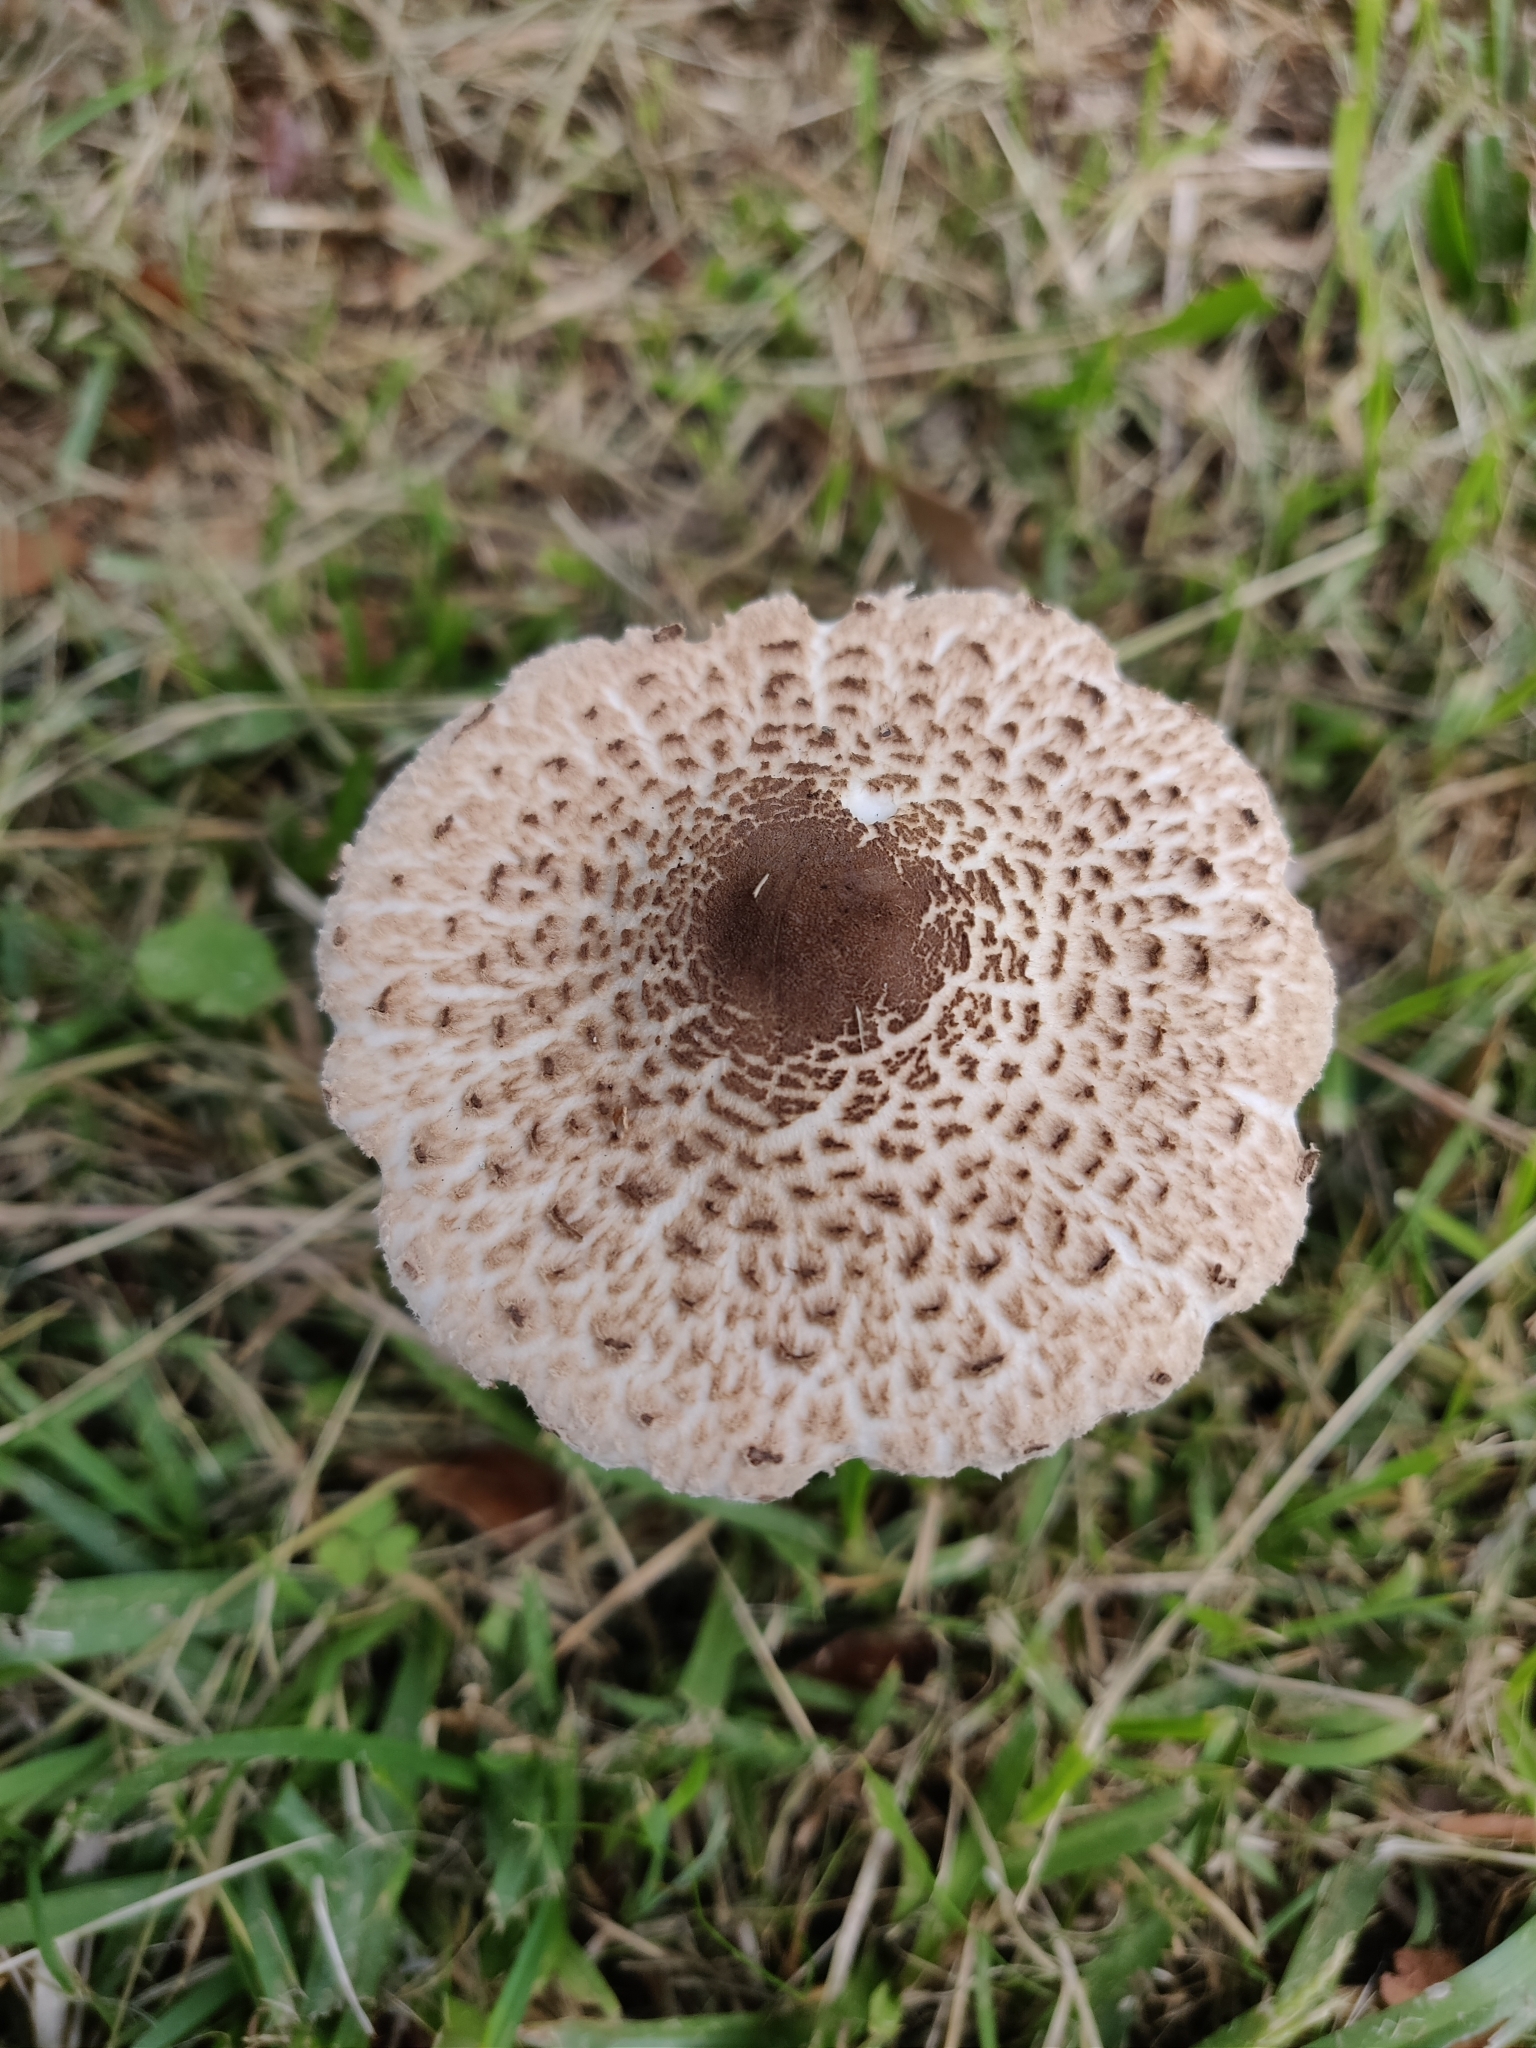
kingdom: Fungi
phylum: Basidiomycota
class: Agaricomycetes
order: Agaricales
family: Agaricaceae
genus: Macrolepiota
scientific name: Macrolepiota clelandii
